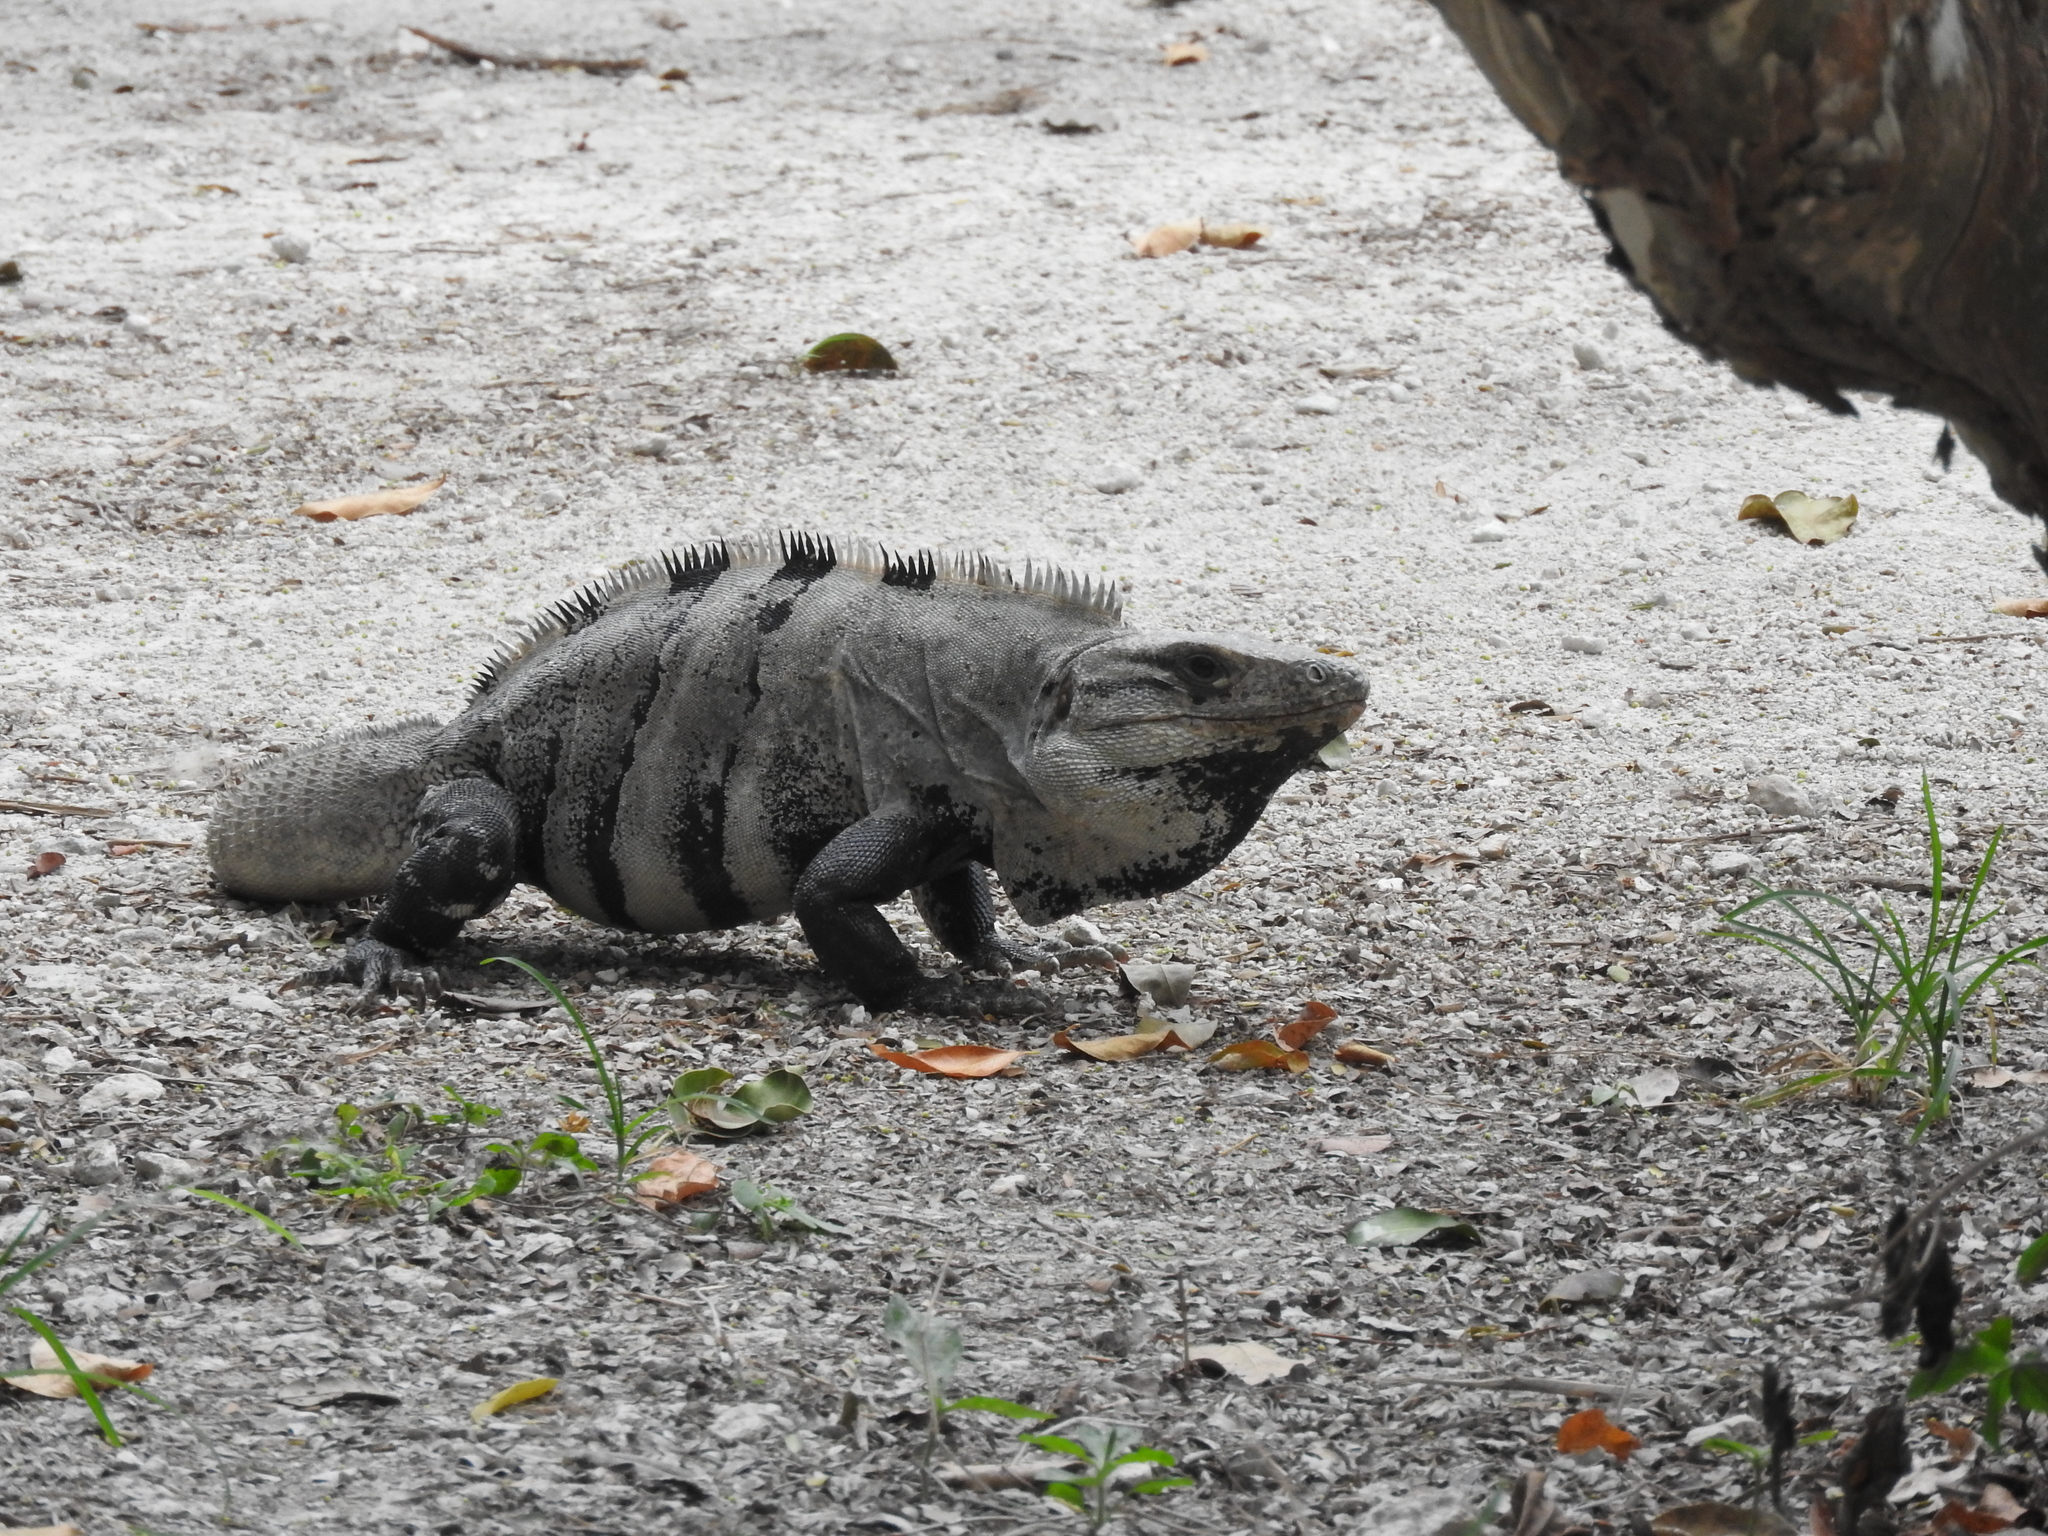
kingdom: Animalia
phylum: Chordata
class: Squamata
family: Iguanidae
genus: Ctenosaura
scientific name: Ctenosaura similis
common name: Black spiny-tailed iguana
